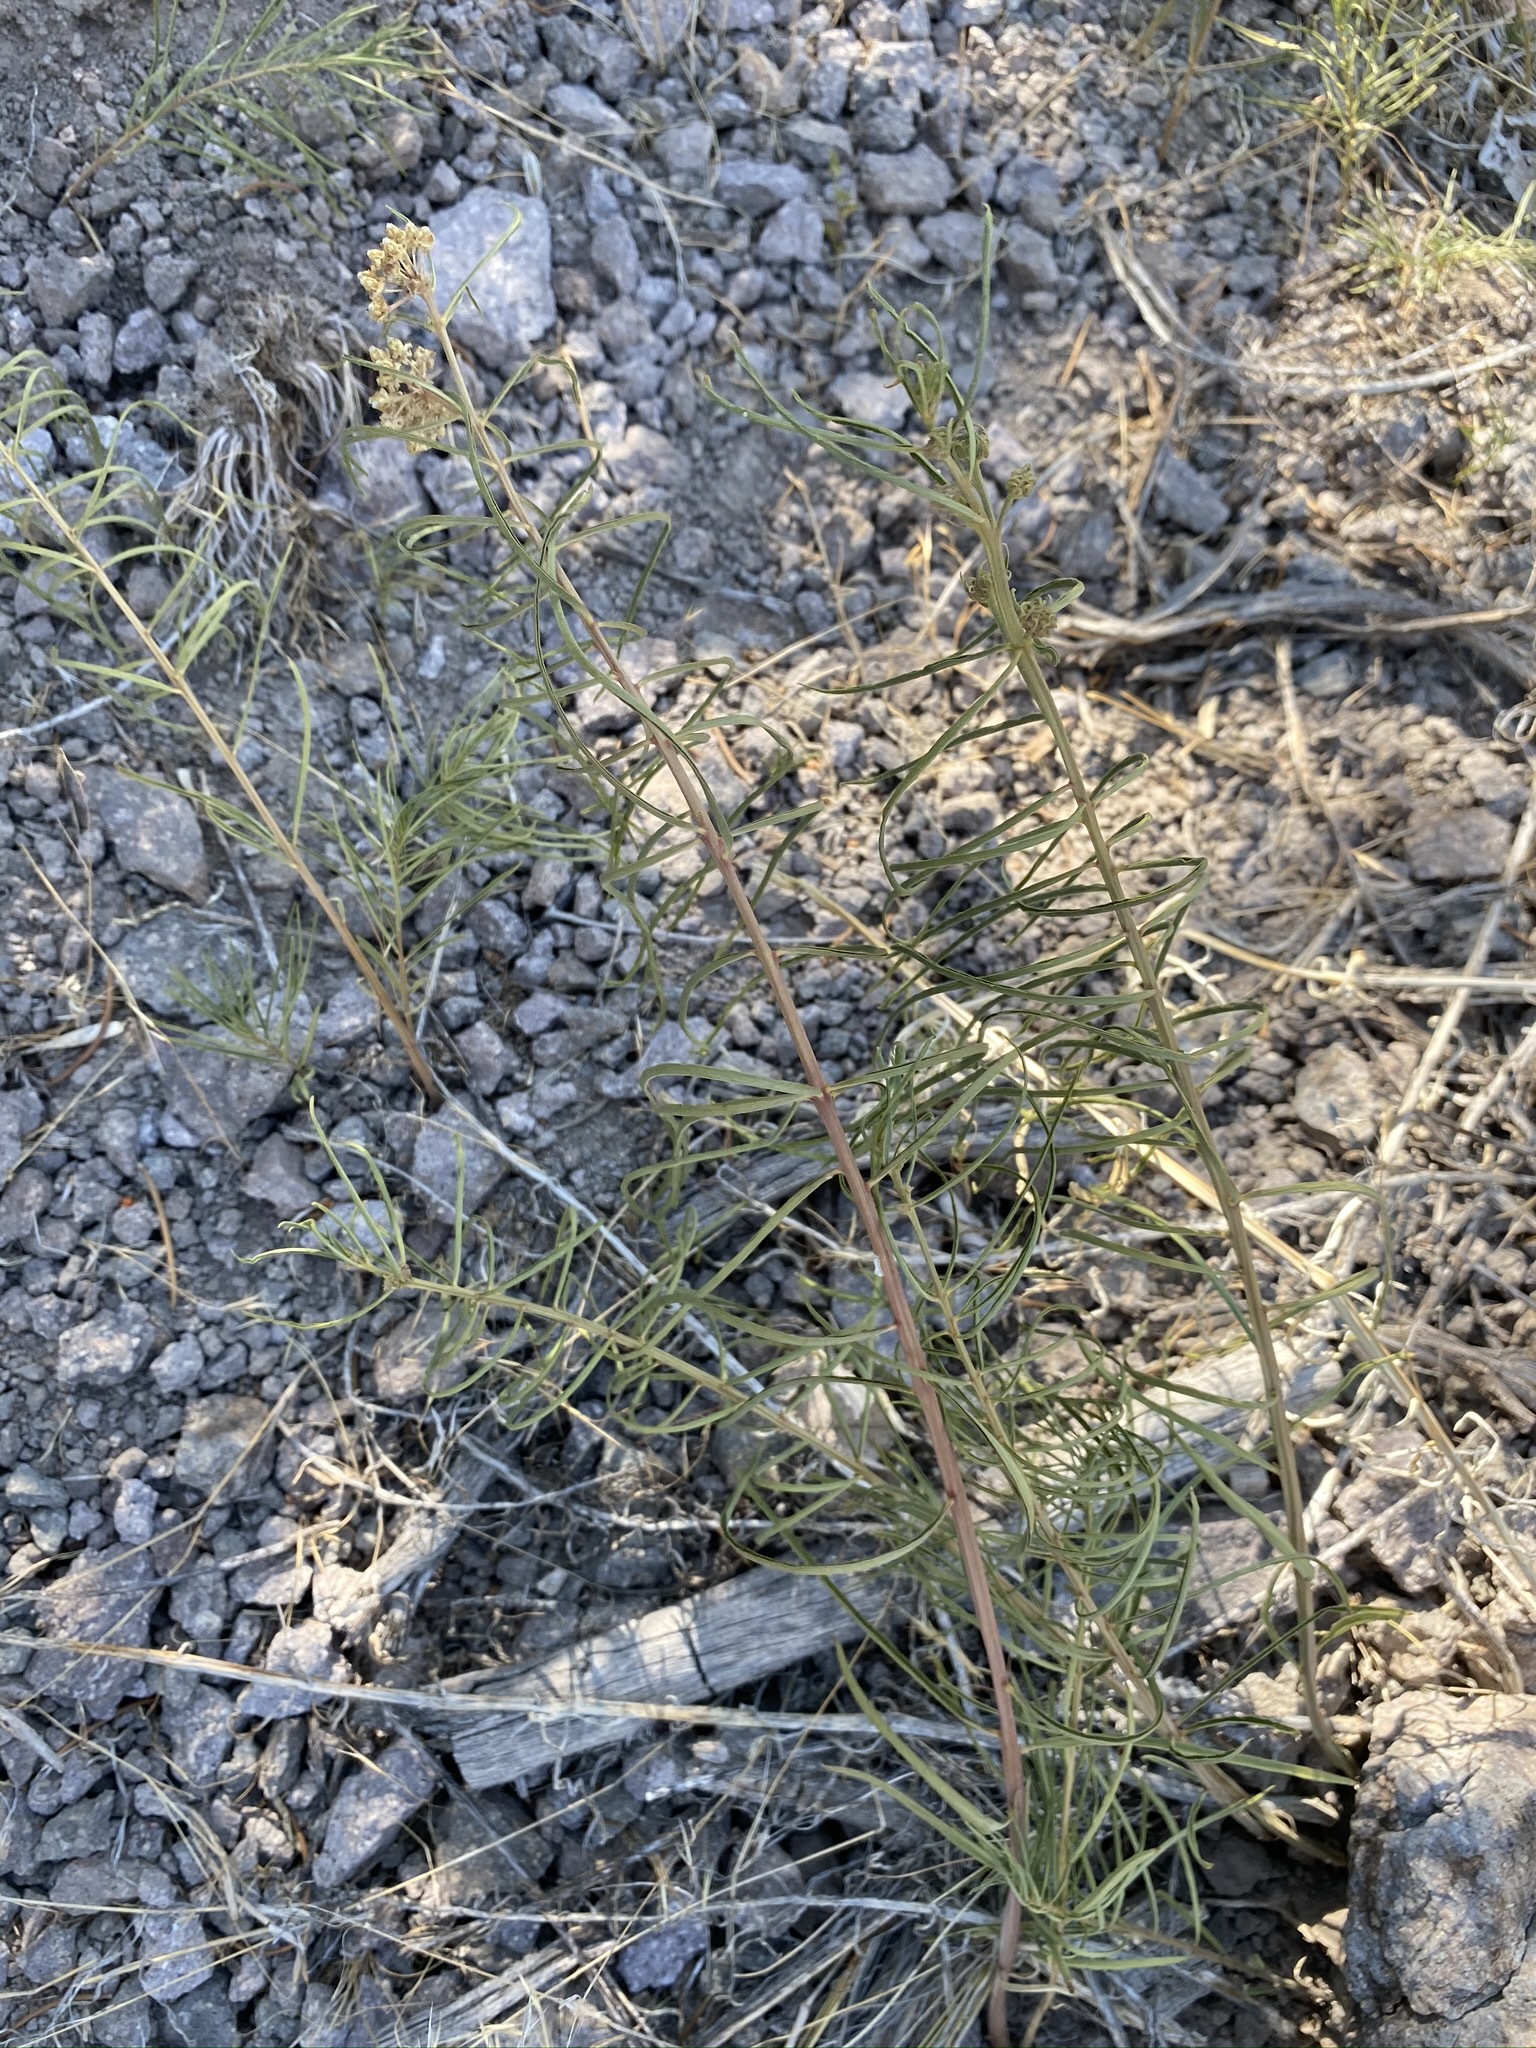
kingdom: Plantae
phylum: Tracheophyta
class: Magnoliopsida
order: Gentianales
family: Apocynaceae
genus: Asclepias
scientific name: Asclepias rusbyi
